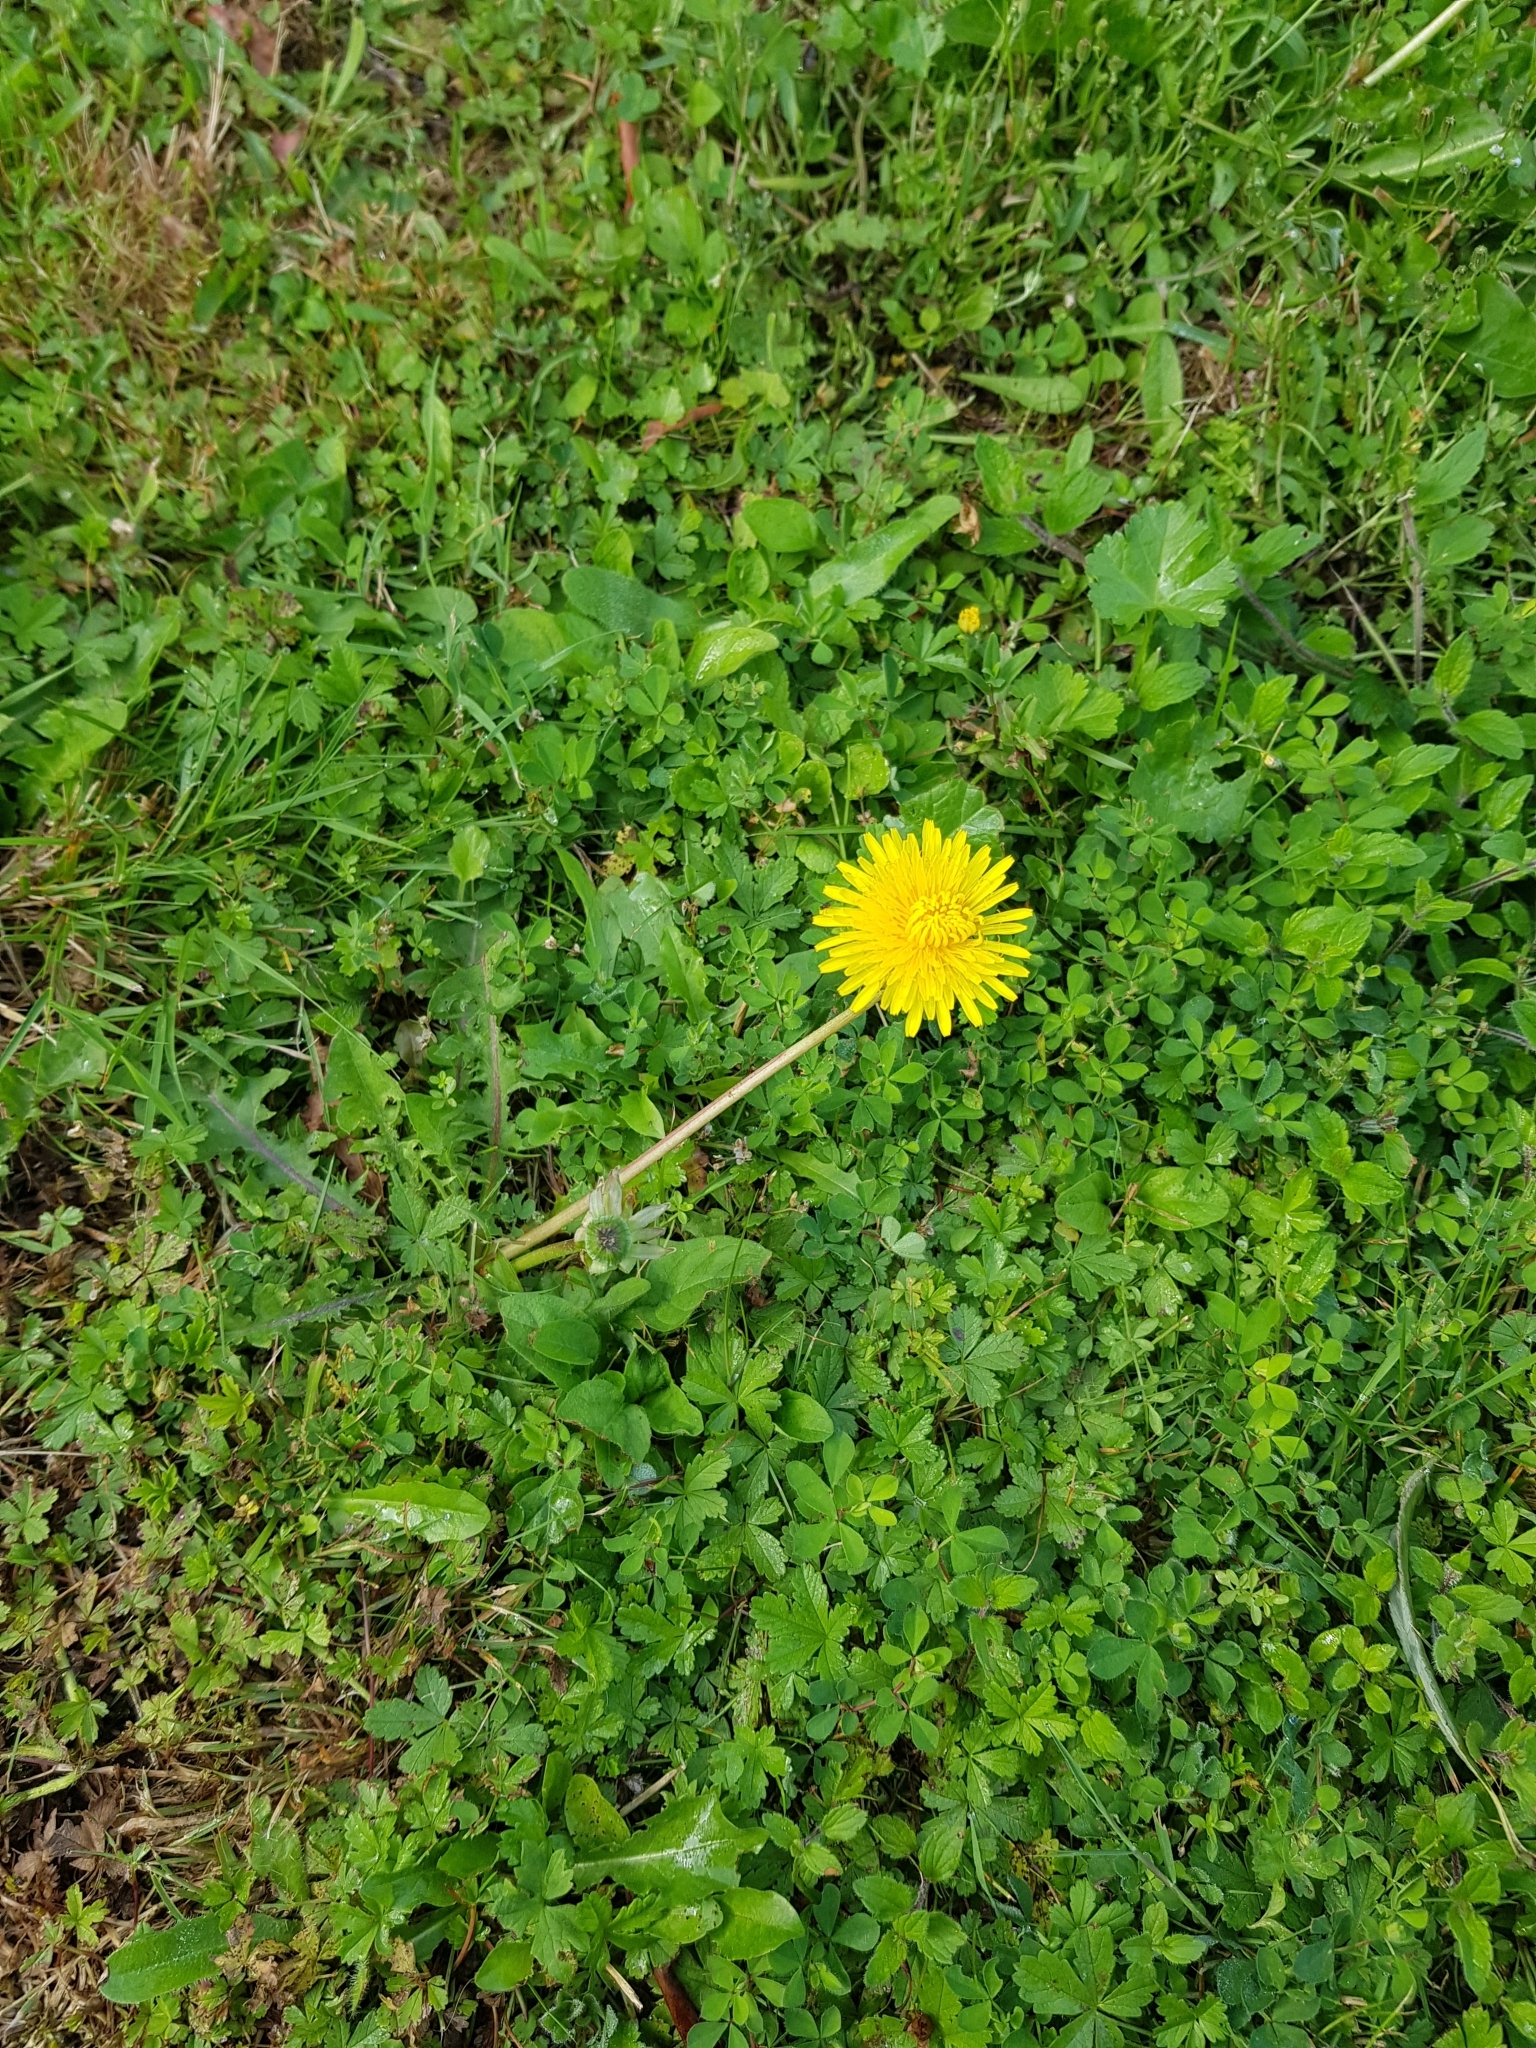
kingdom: Plantae
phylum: Tracheophyta
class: Magnoliopsida
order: Asterales
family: Asteraceae
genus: Taraxacum
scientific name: Taraxacum officinale
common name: Common dandelion
